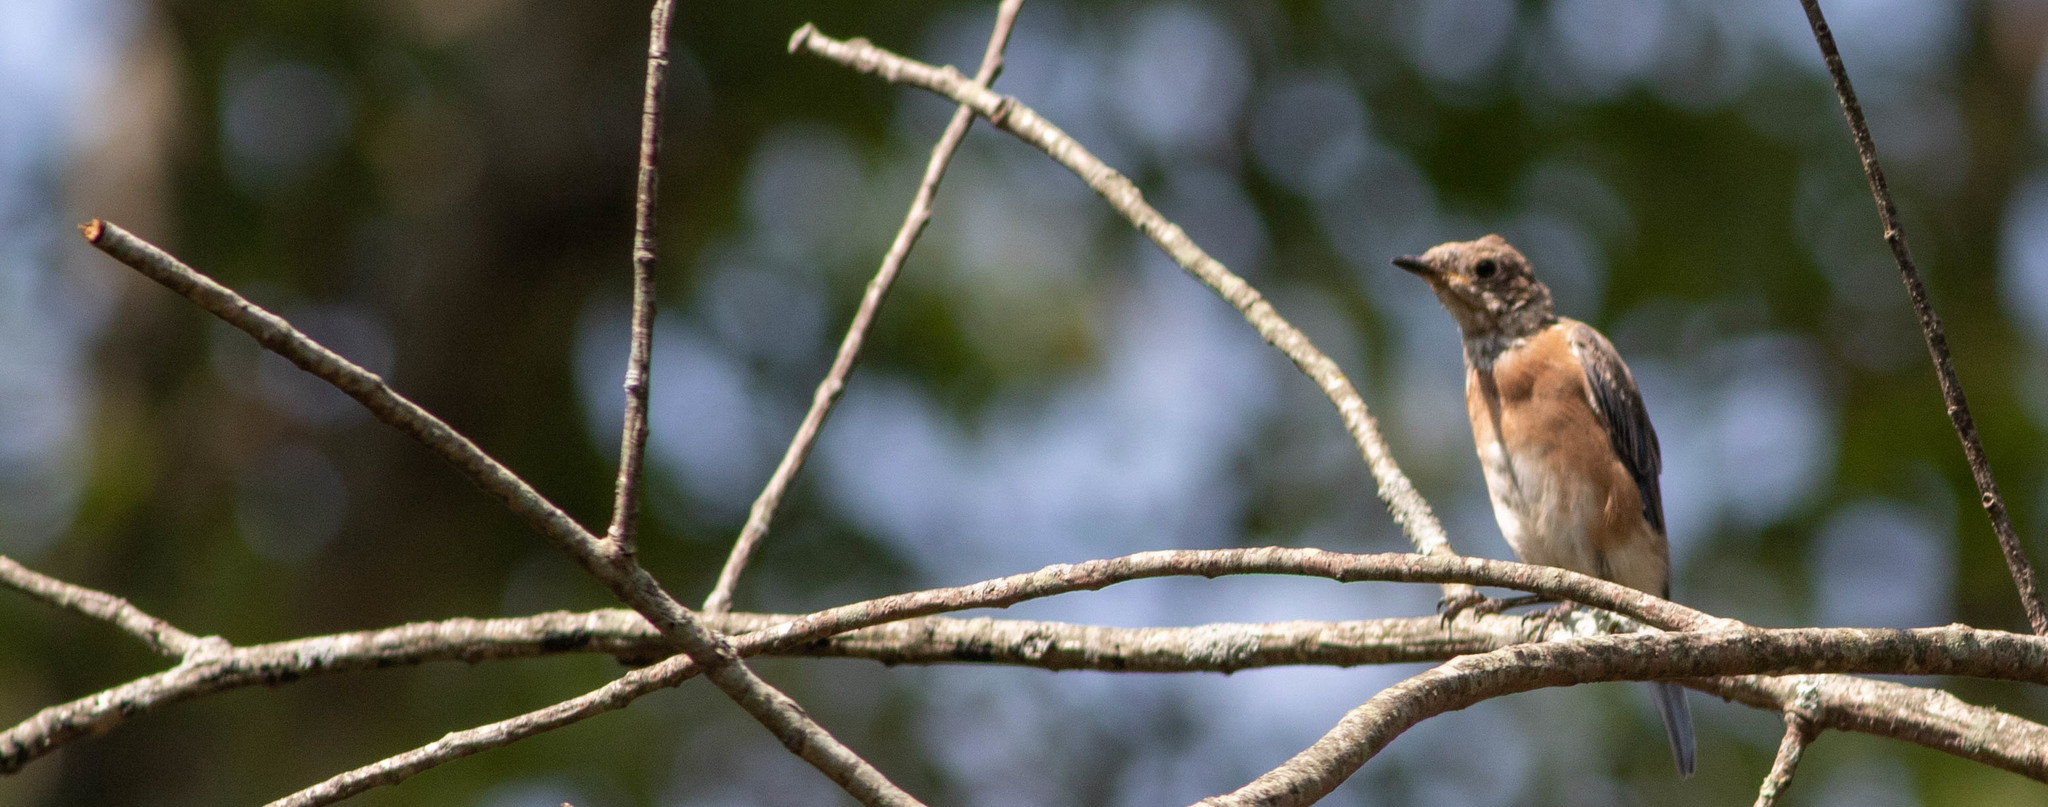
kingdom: Animalia
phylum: Chordata
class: Aves
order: Passeriformes
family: Turdidae
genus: Sialia
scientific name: Sialia sialis
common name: Eastern bluebird
